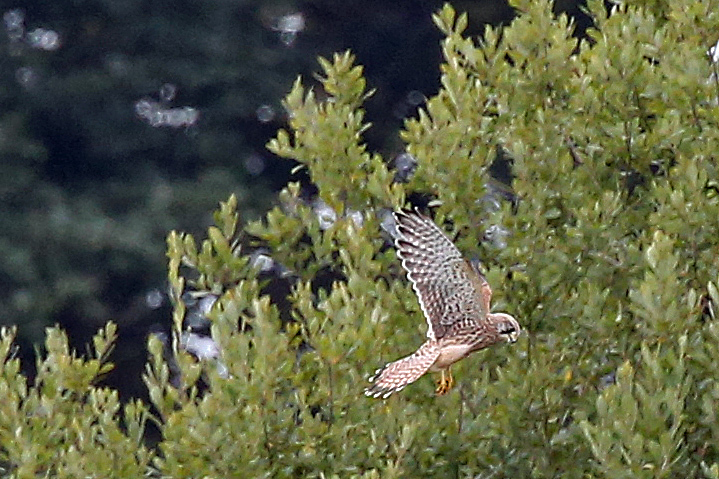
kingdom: Animalia
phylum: Chordata
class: Aves
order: Falconiformes
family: Falconidae
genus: Falco
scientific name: Falco tinnunculus
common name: Common kestrel
